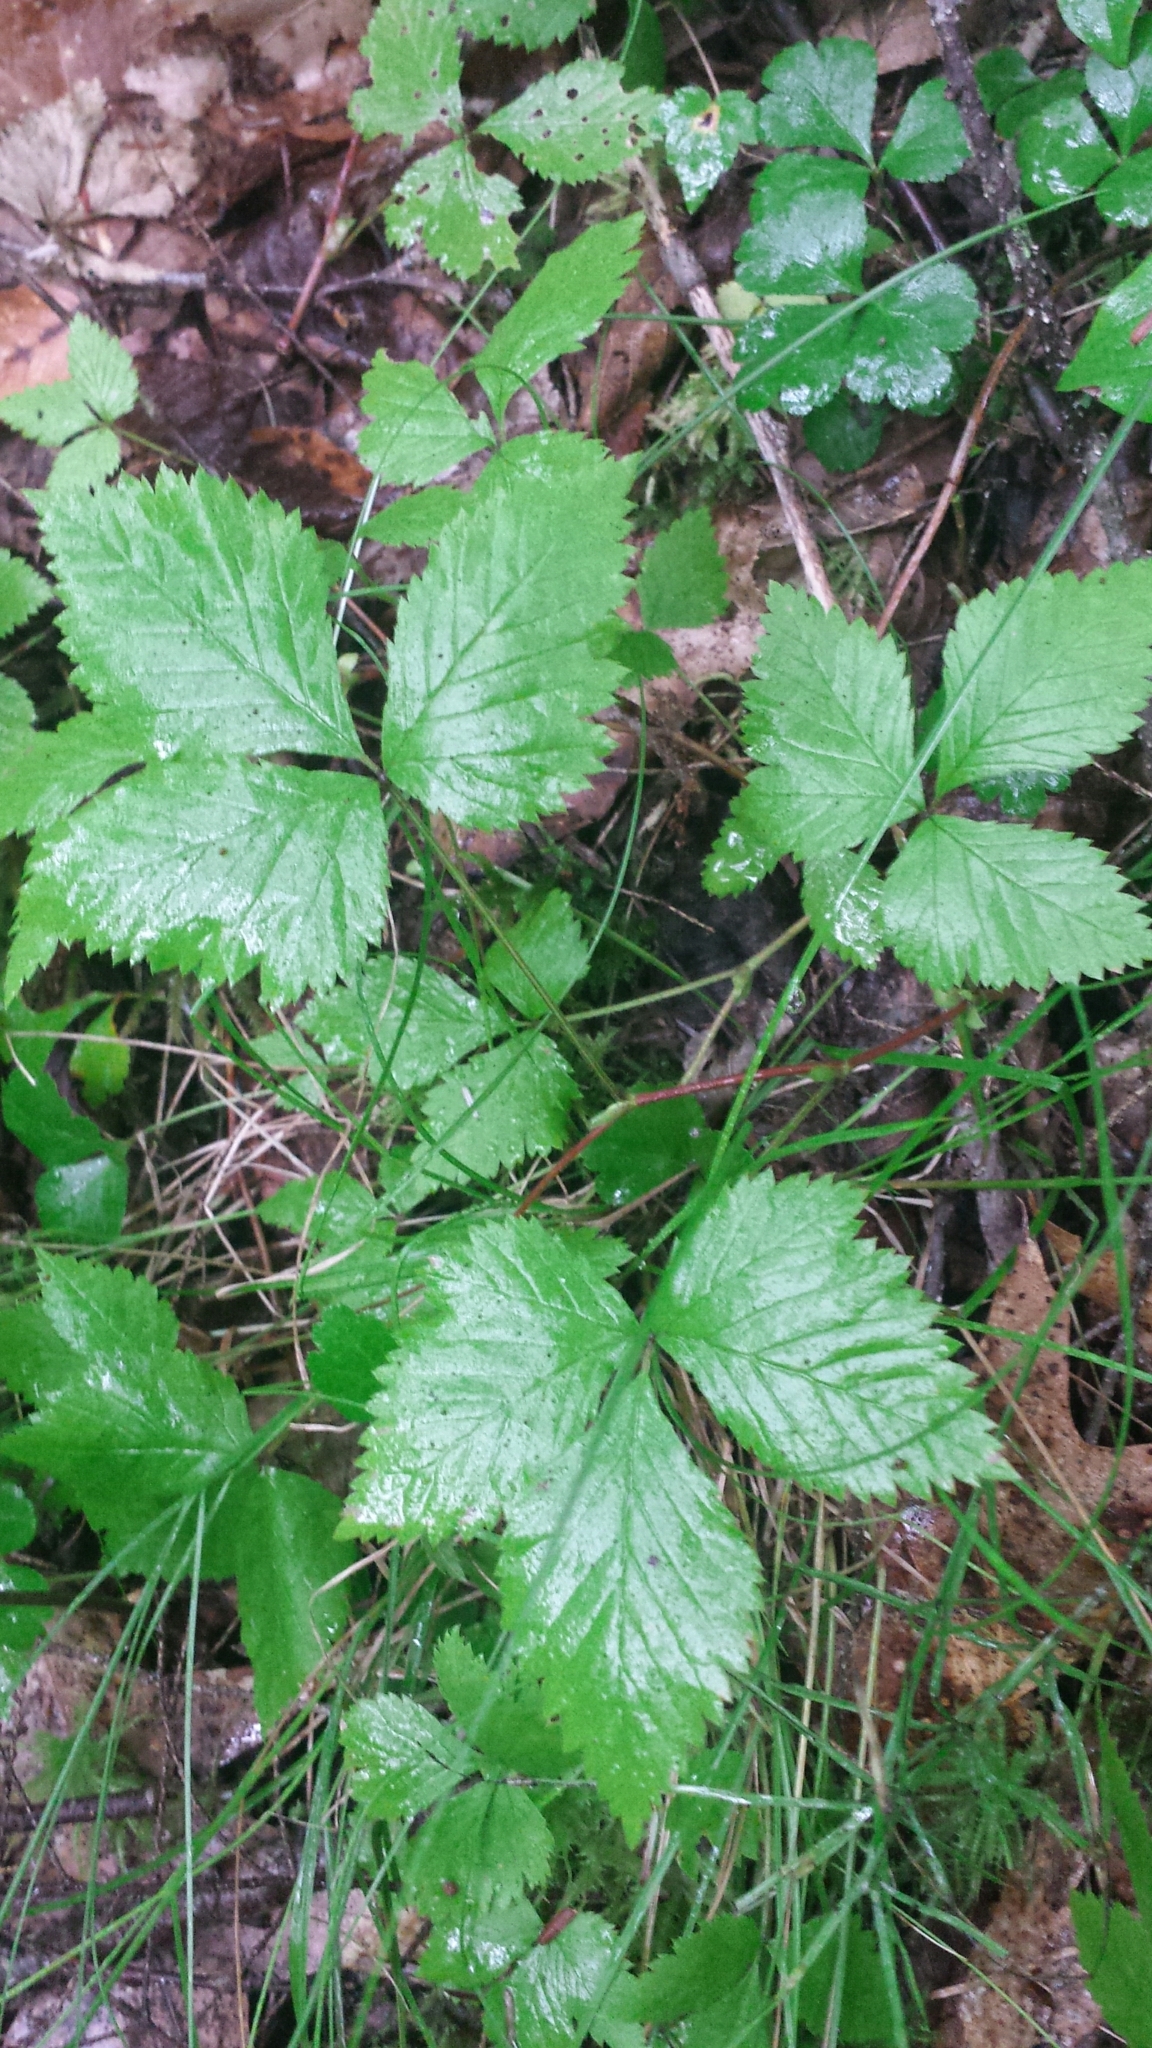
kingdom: Plantae
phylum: Tracheophyta
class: Magnoliopsida
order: Rosales
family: Rosaceae
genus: Rubus
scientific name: Rubus pubescens
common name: Dwarf raspberry
